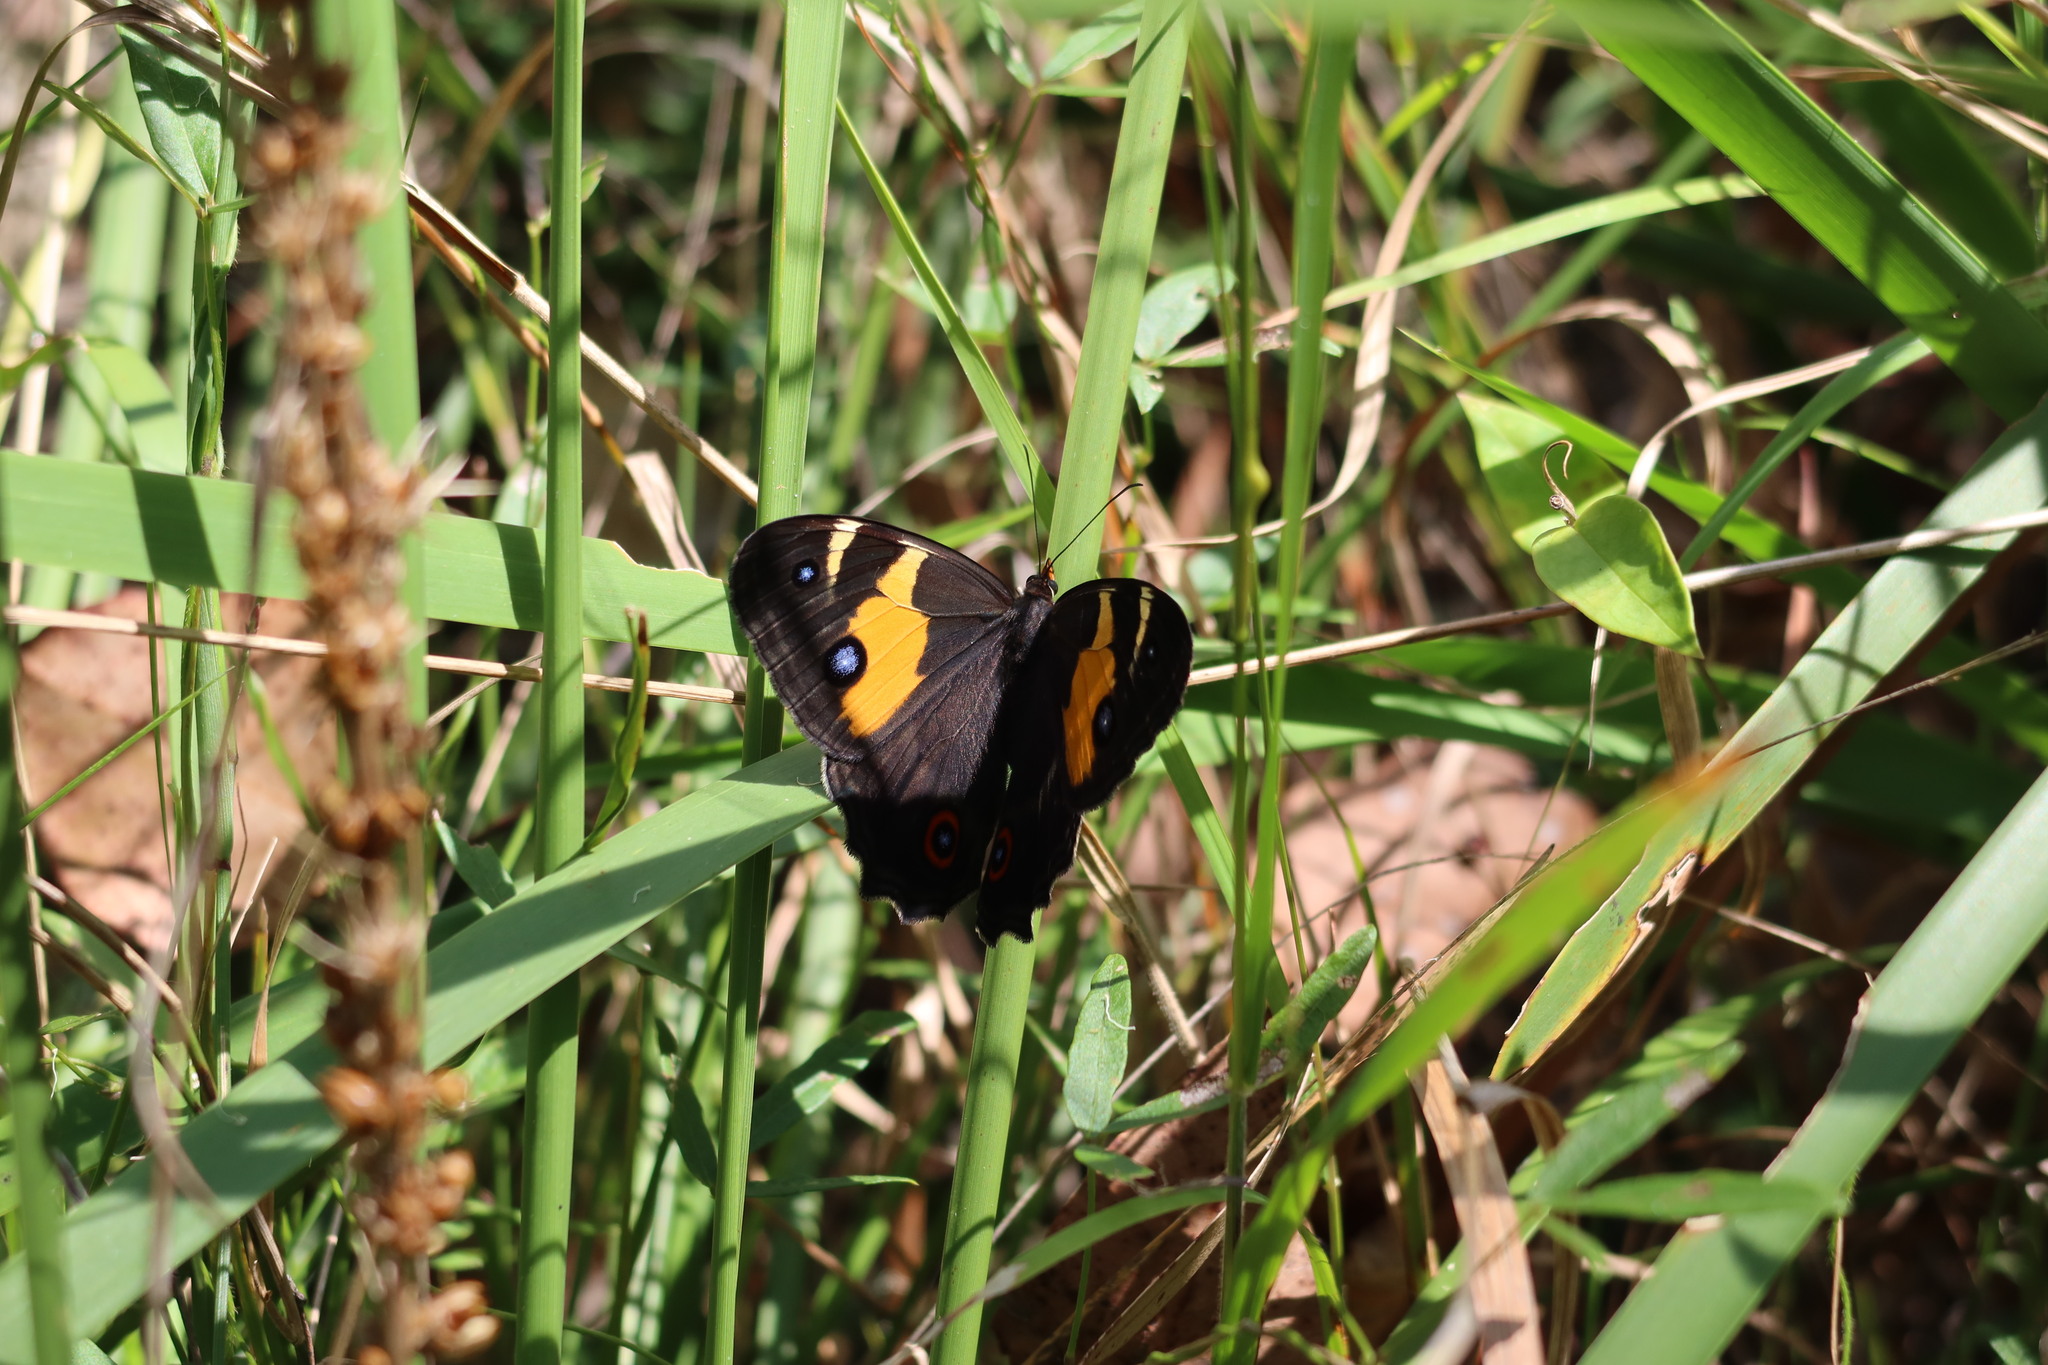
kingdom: Animalia
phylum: Arthropoda
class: Insecta
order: Lepidoptera
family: Nymphalidae
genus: Tisiphone
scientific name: Tisiphone abeona
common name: Swordgrass brown
